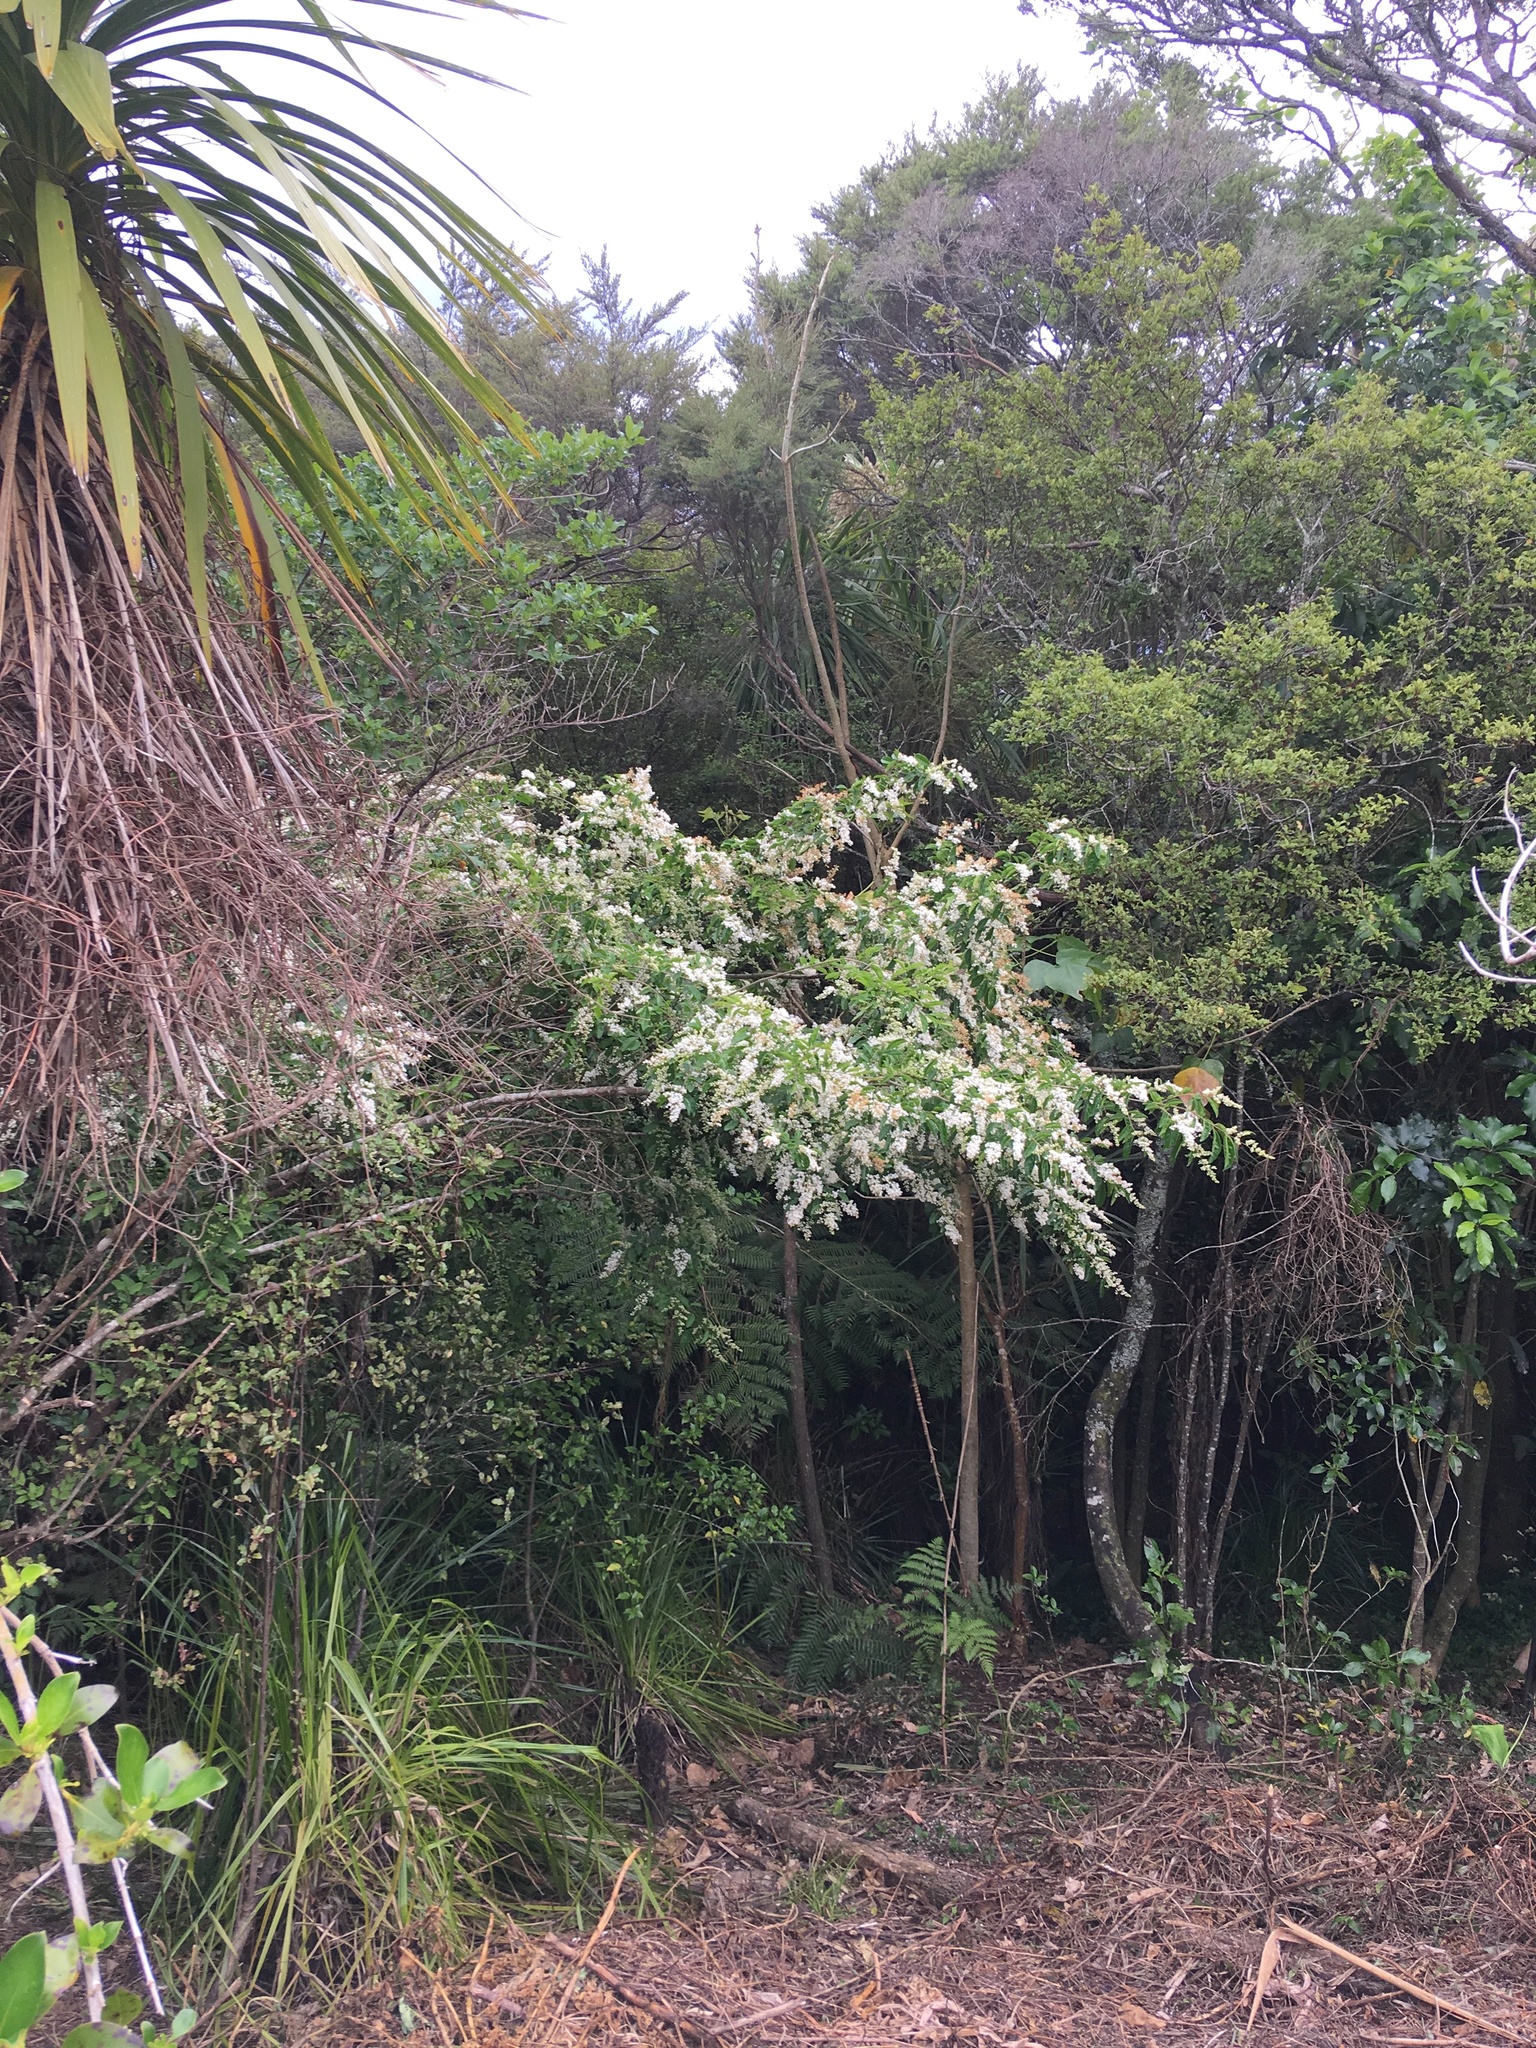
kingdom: Plantae
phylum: Tracheophyta
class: Magnoliopsida
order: Dipsacales
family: Caprifoliaceae
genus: Lonicera
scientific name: Lonicera japonica
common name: Japanese honeysuckle
